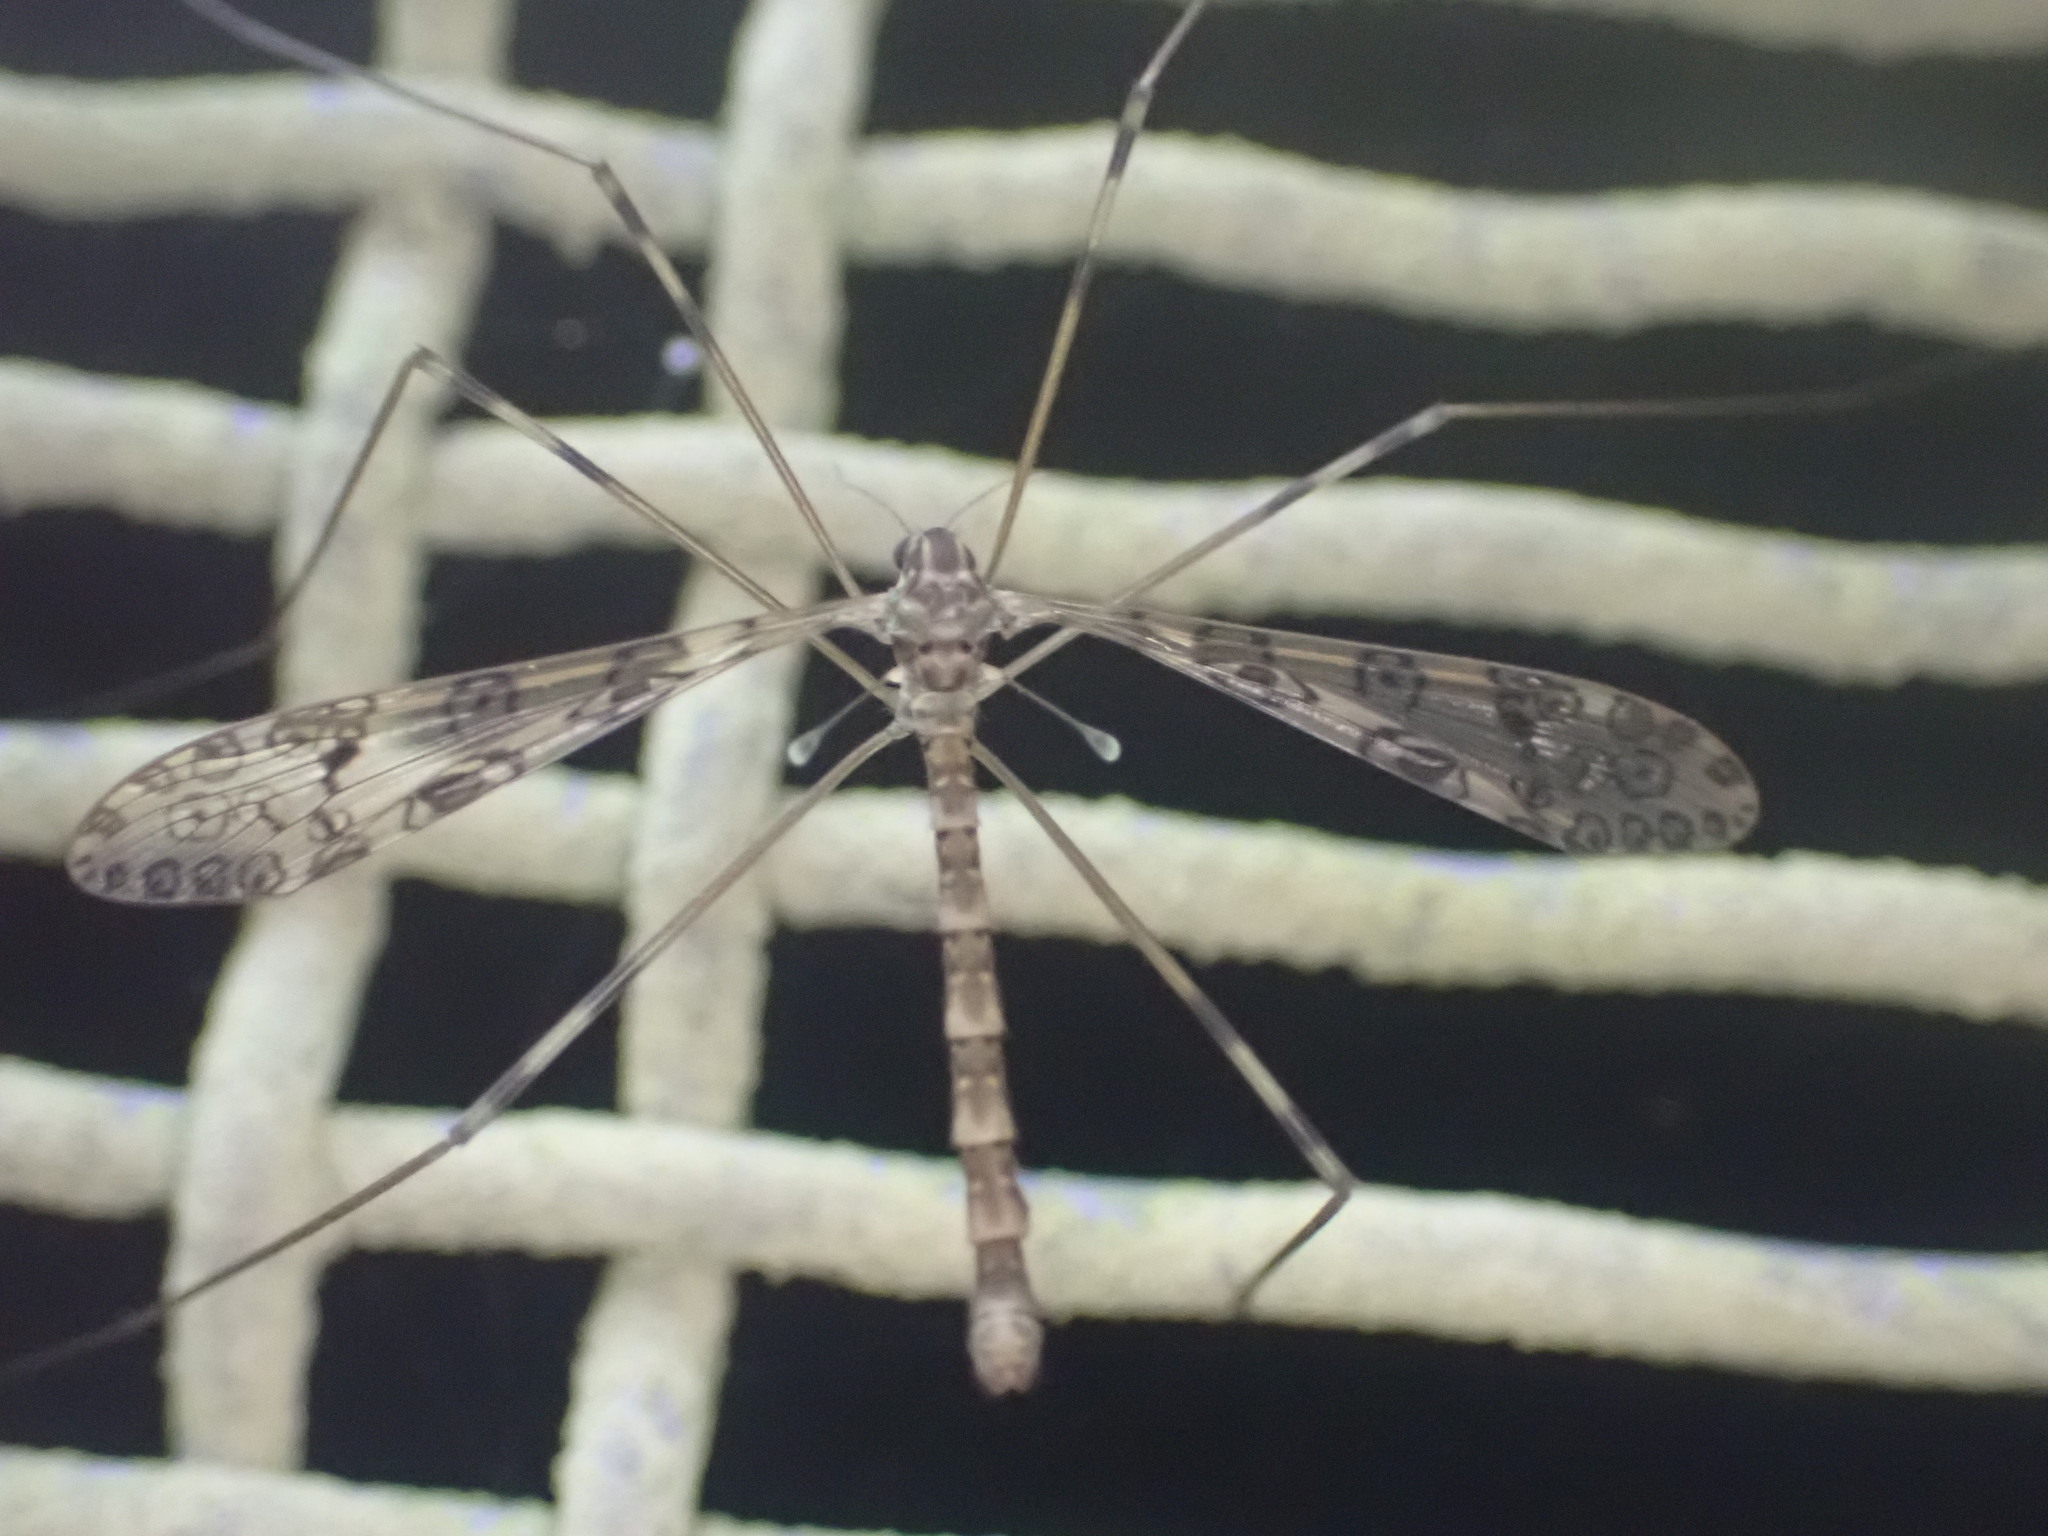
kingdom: Animalia
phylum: Arthropoda
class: Insecta
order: Diptera
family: Limoniidae
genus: Austrolimnophila
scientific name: Austrolimnophila argus
